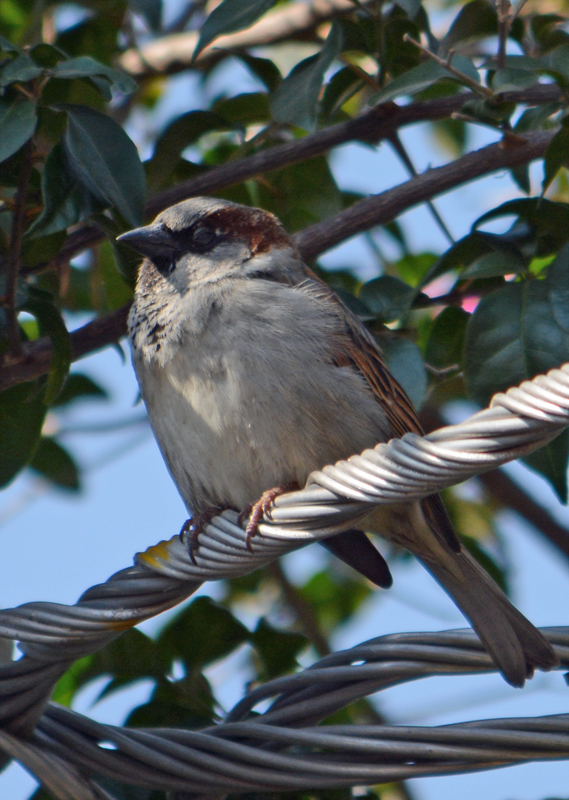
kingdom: Animalia
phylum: Chordata
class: Aves
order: Passeriformes
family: Passeridae
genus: Passer
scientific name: Passer domesticus
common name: House sparrow
